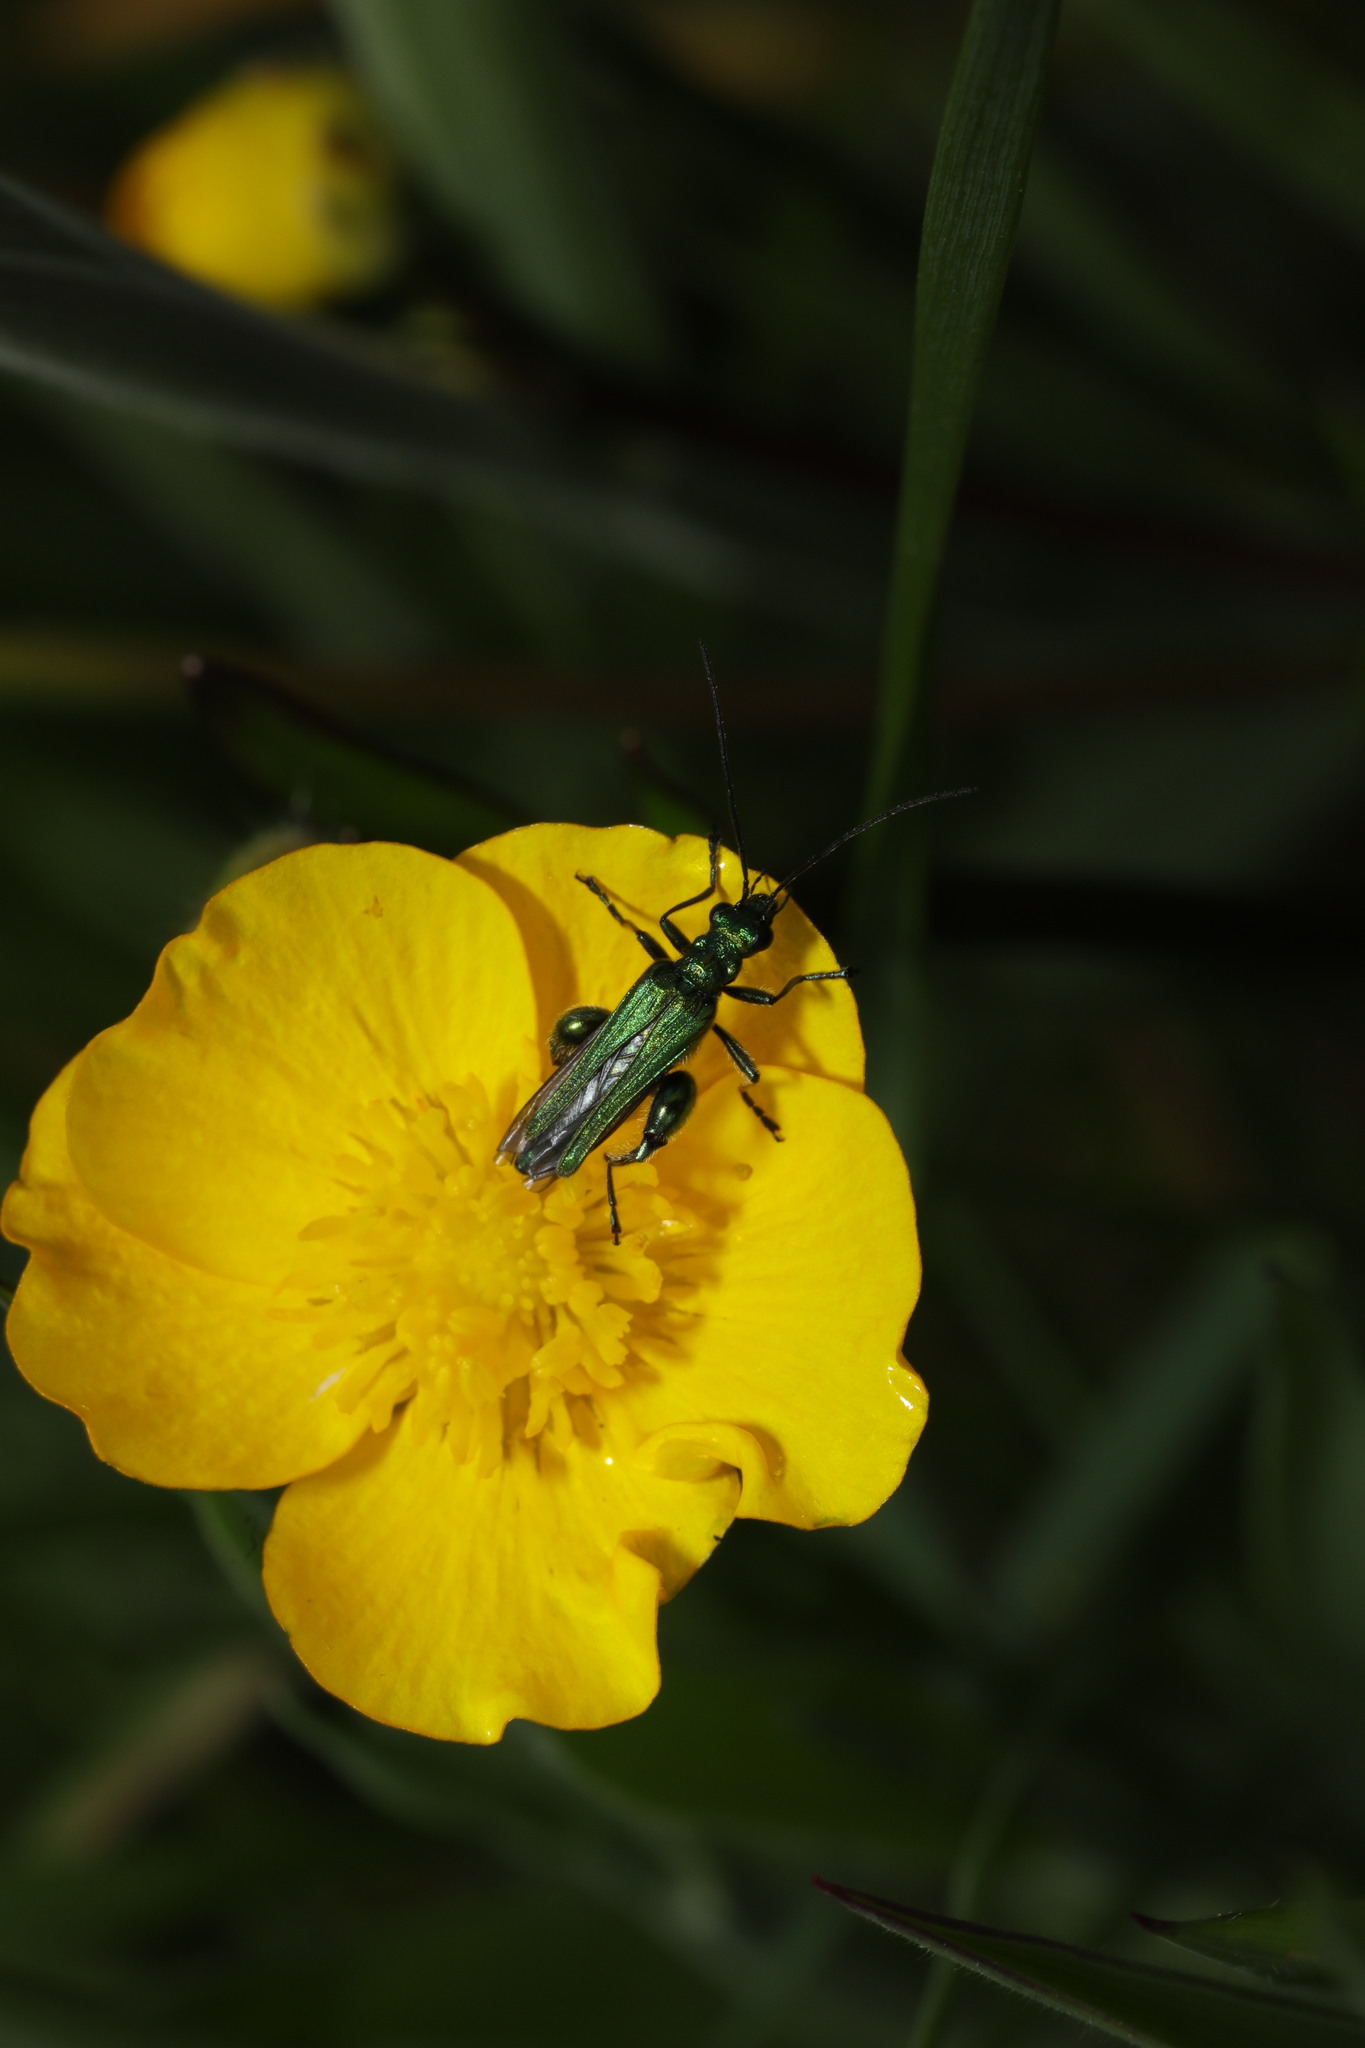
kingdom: Animalia
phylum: Arthropoda
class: Insecta
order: Coleoptera
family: Oedemeridae
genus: Oedemera
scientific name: Oedemera nobilis
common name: Swollen-thighed beetle
